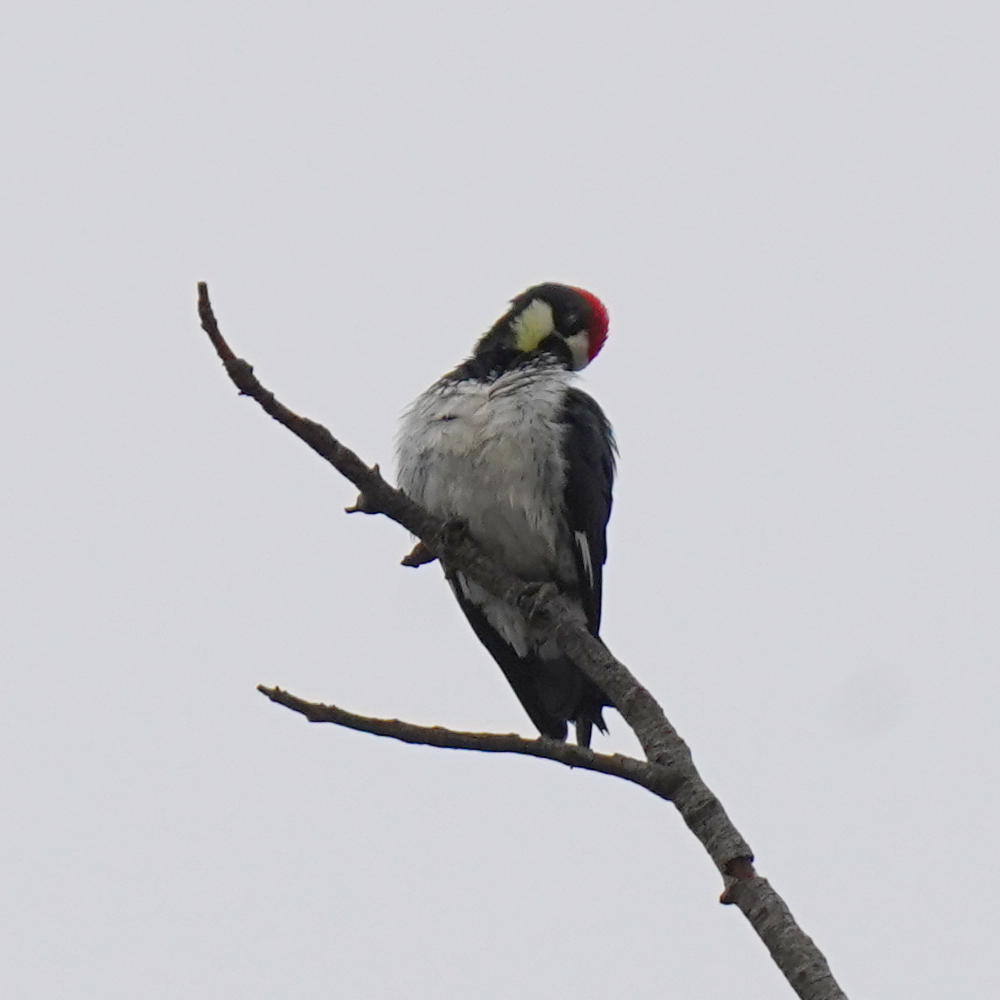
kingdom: Animalia
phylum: Chordata
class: Aves
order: Piciformes
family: Picidae
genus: Melanerpes
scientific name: Melanerpes formicivorus
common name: Acorn woodpecker
